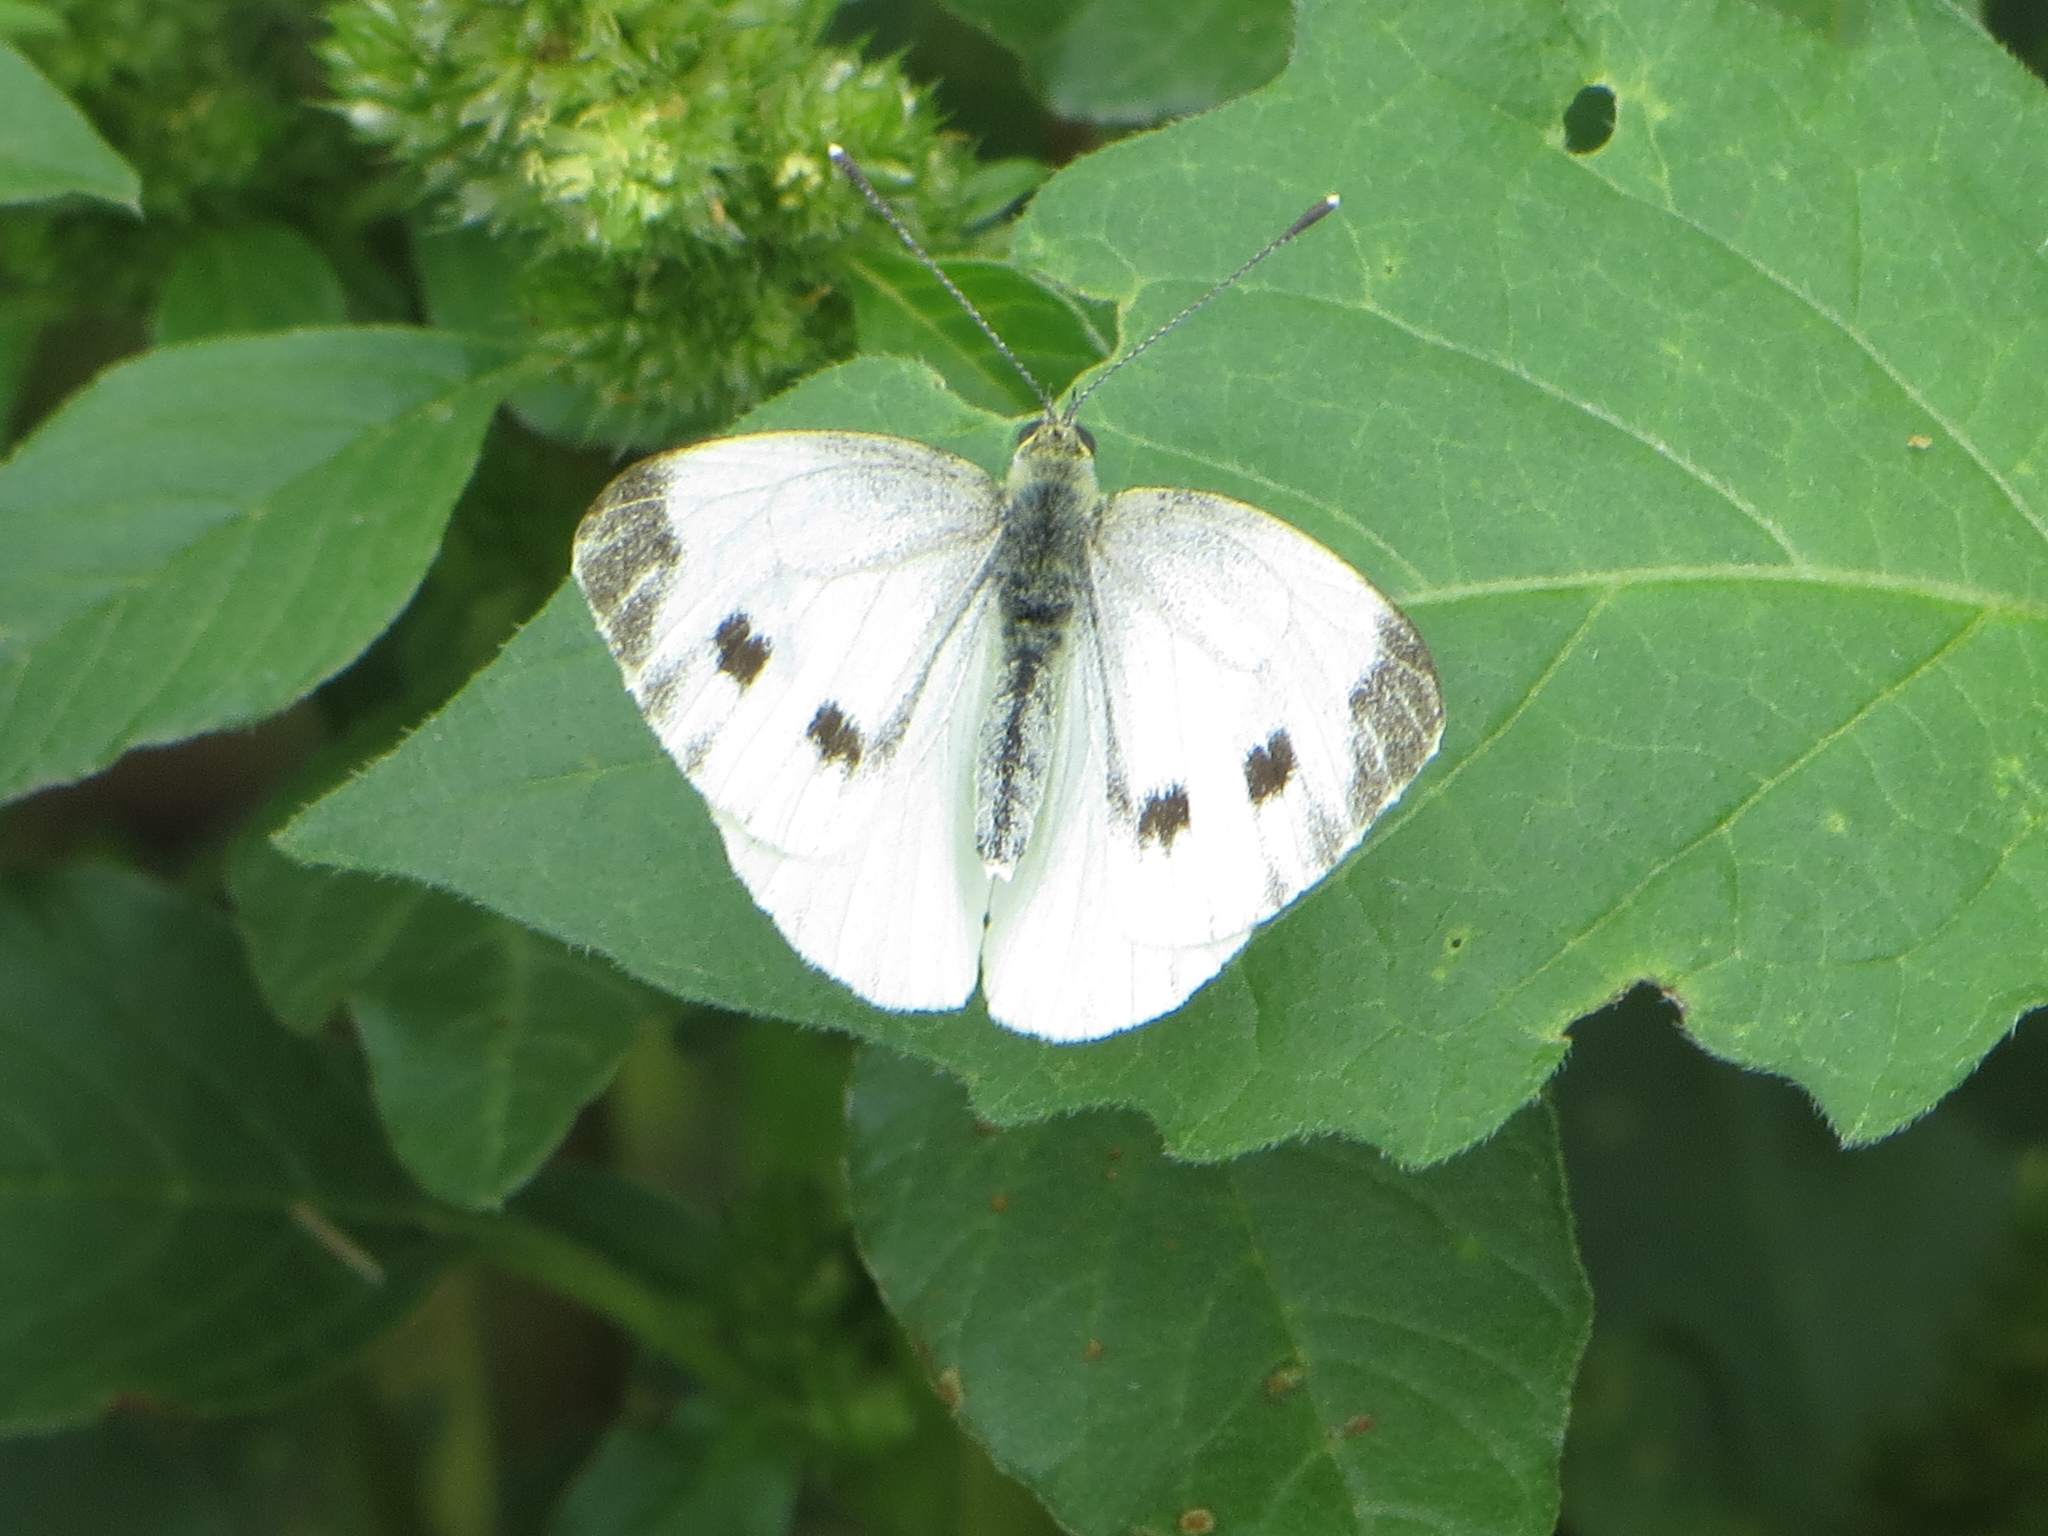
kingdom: Animalia
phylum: Arthropoda
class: Insecta
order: Lepidoptera
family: Pieridae
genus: Pieris
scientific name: Pieris napi
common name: Green-veined white
